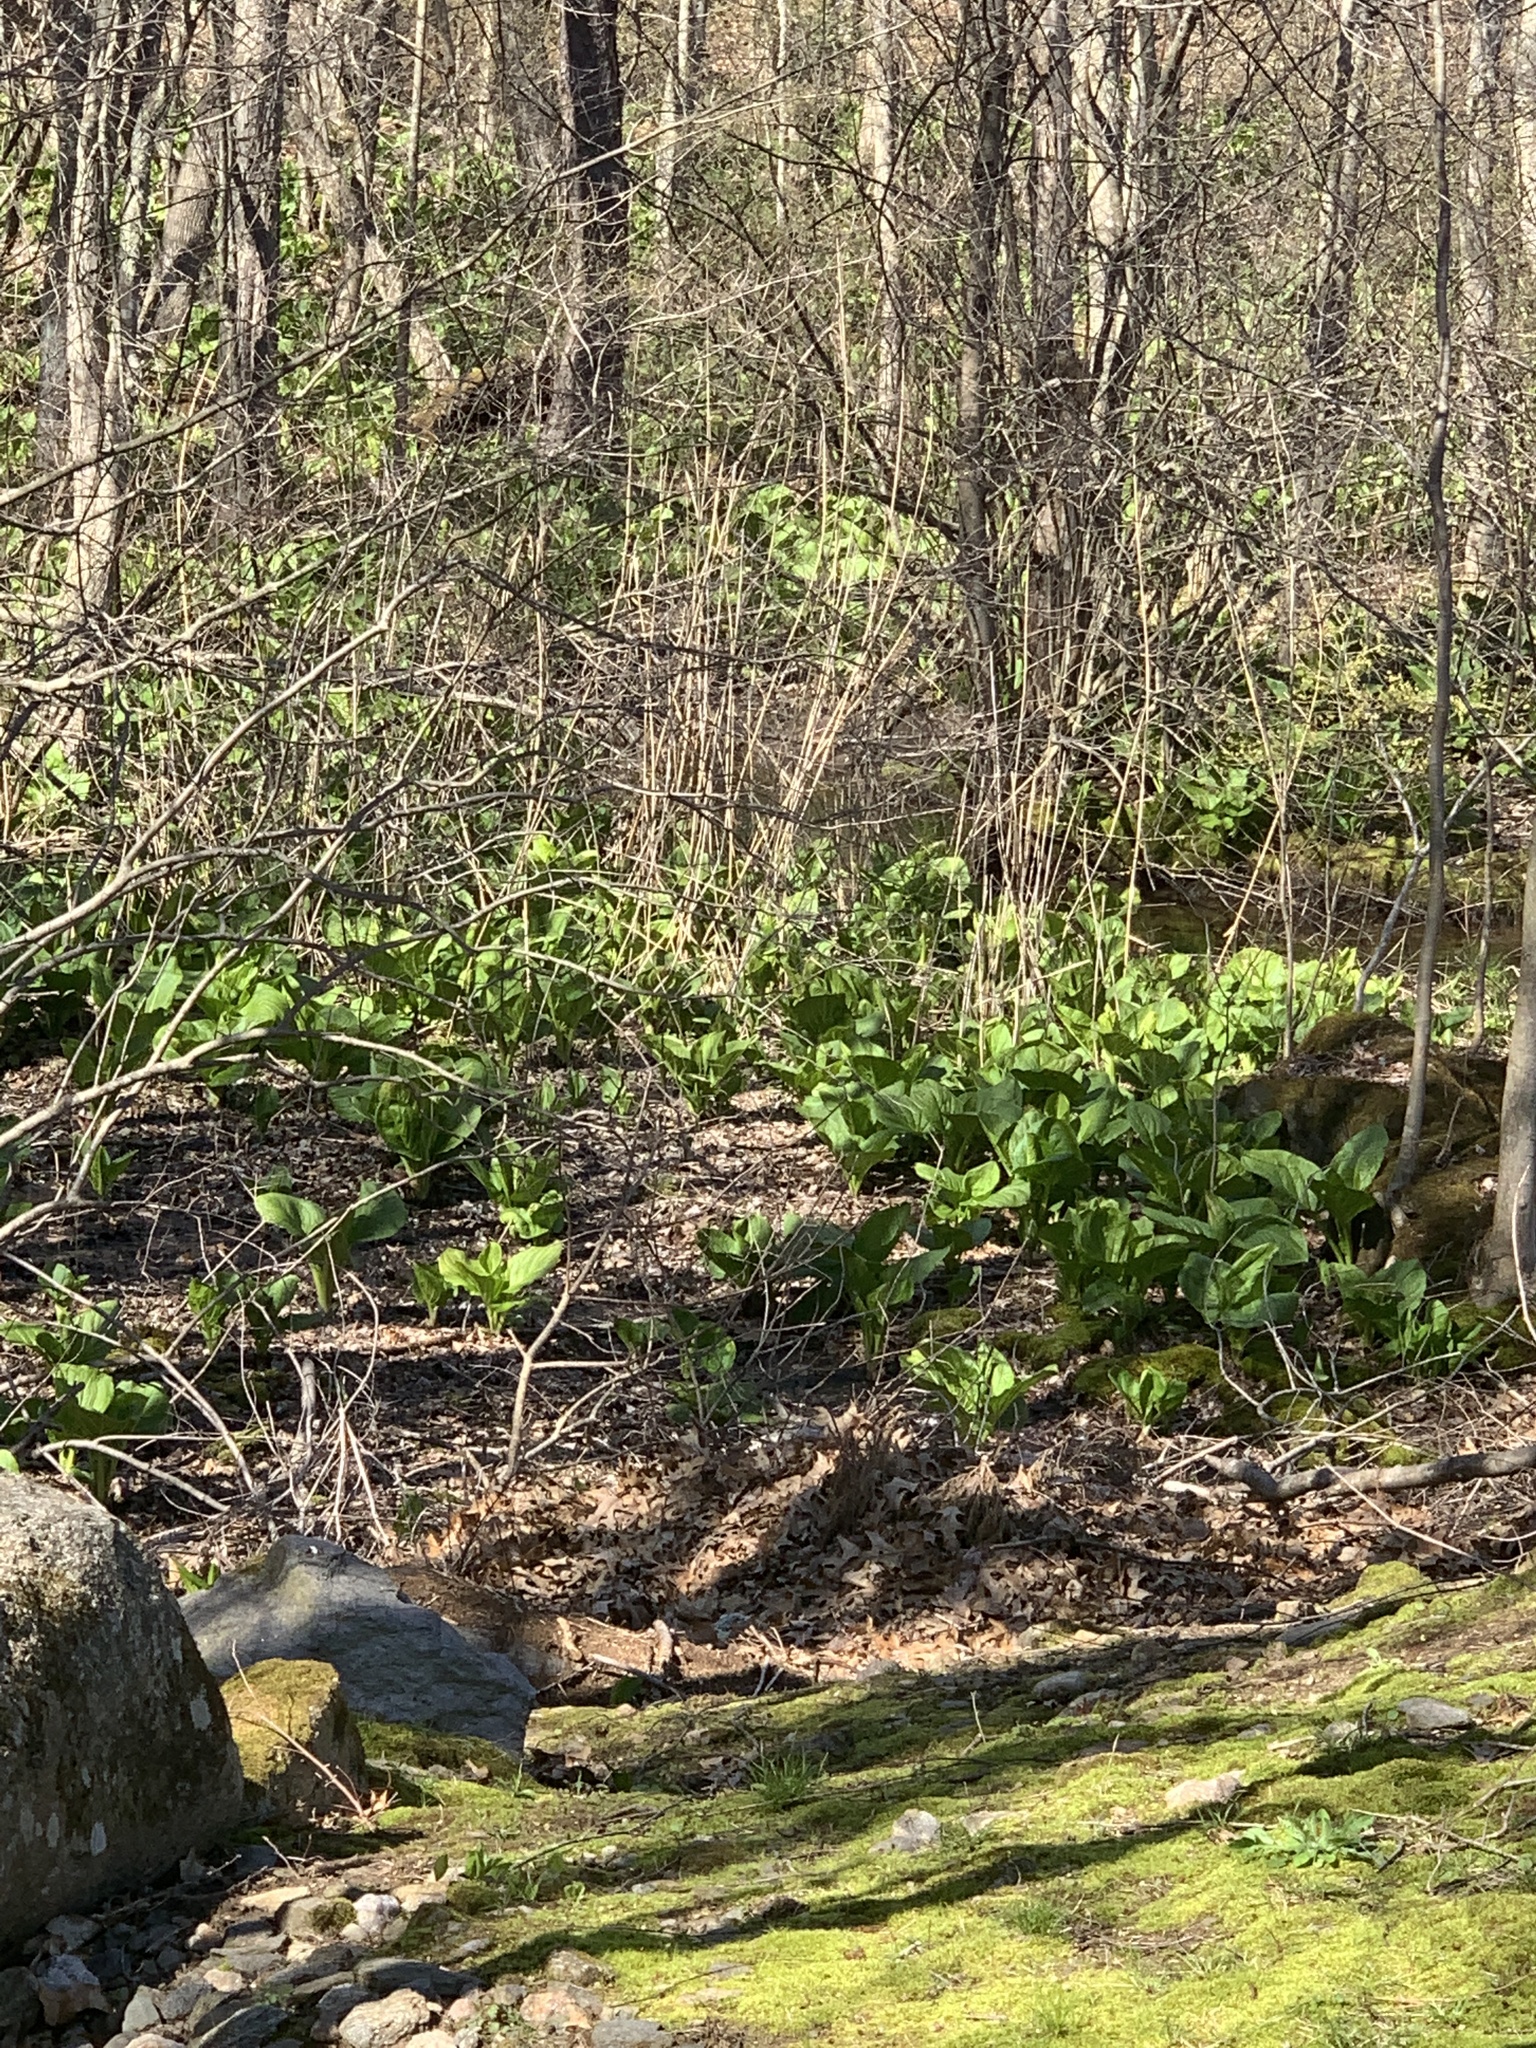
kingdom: Plantae
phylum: Tracheophyta
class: Liliopsida
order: Alismatales
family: Araceae
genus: Symplocarpus
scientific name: Symplocarpus foetidus
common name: Eastern skunk cabbage
